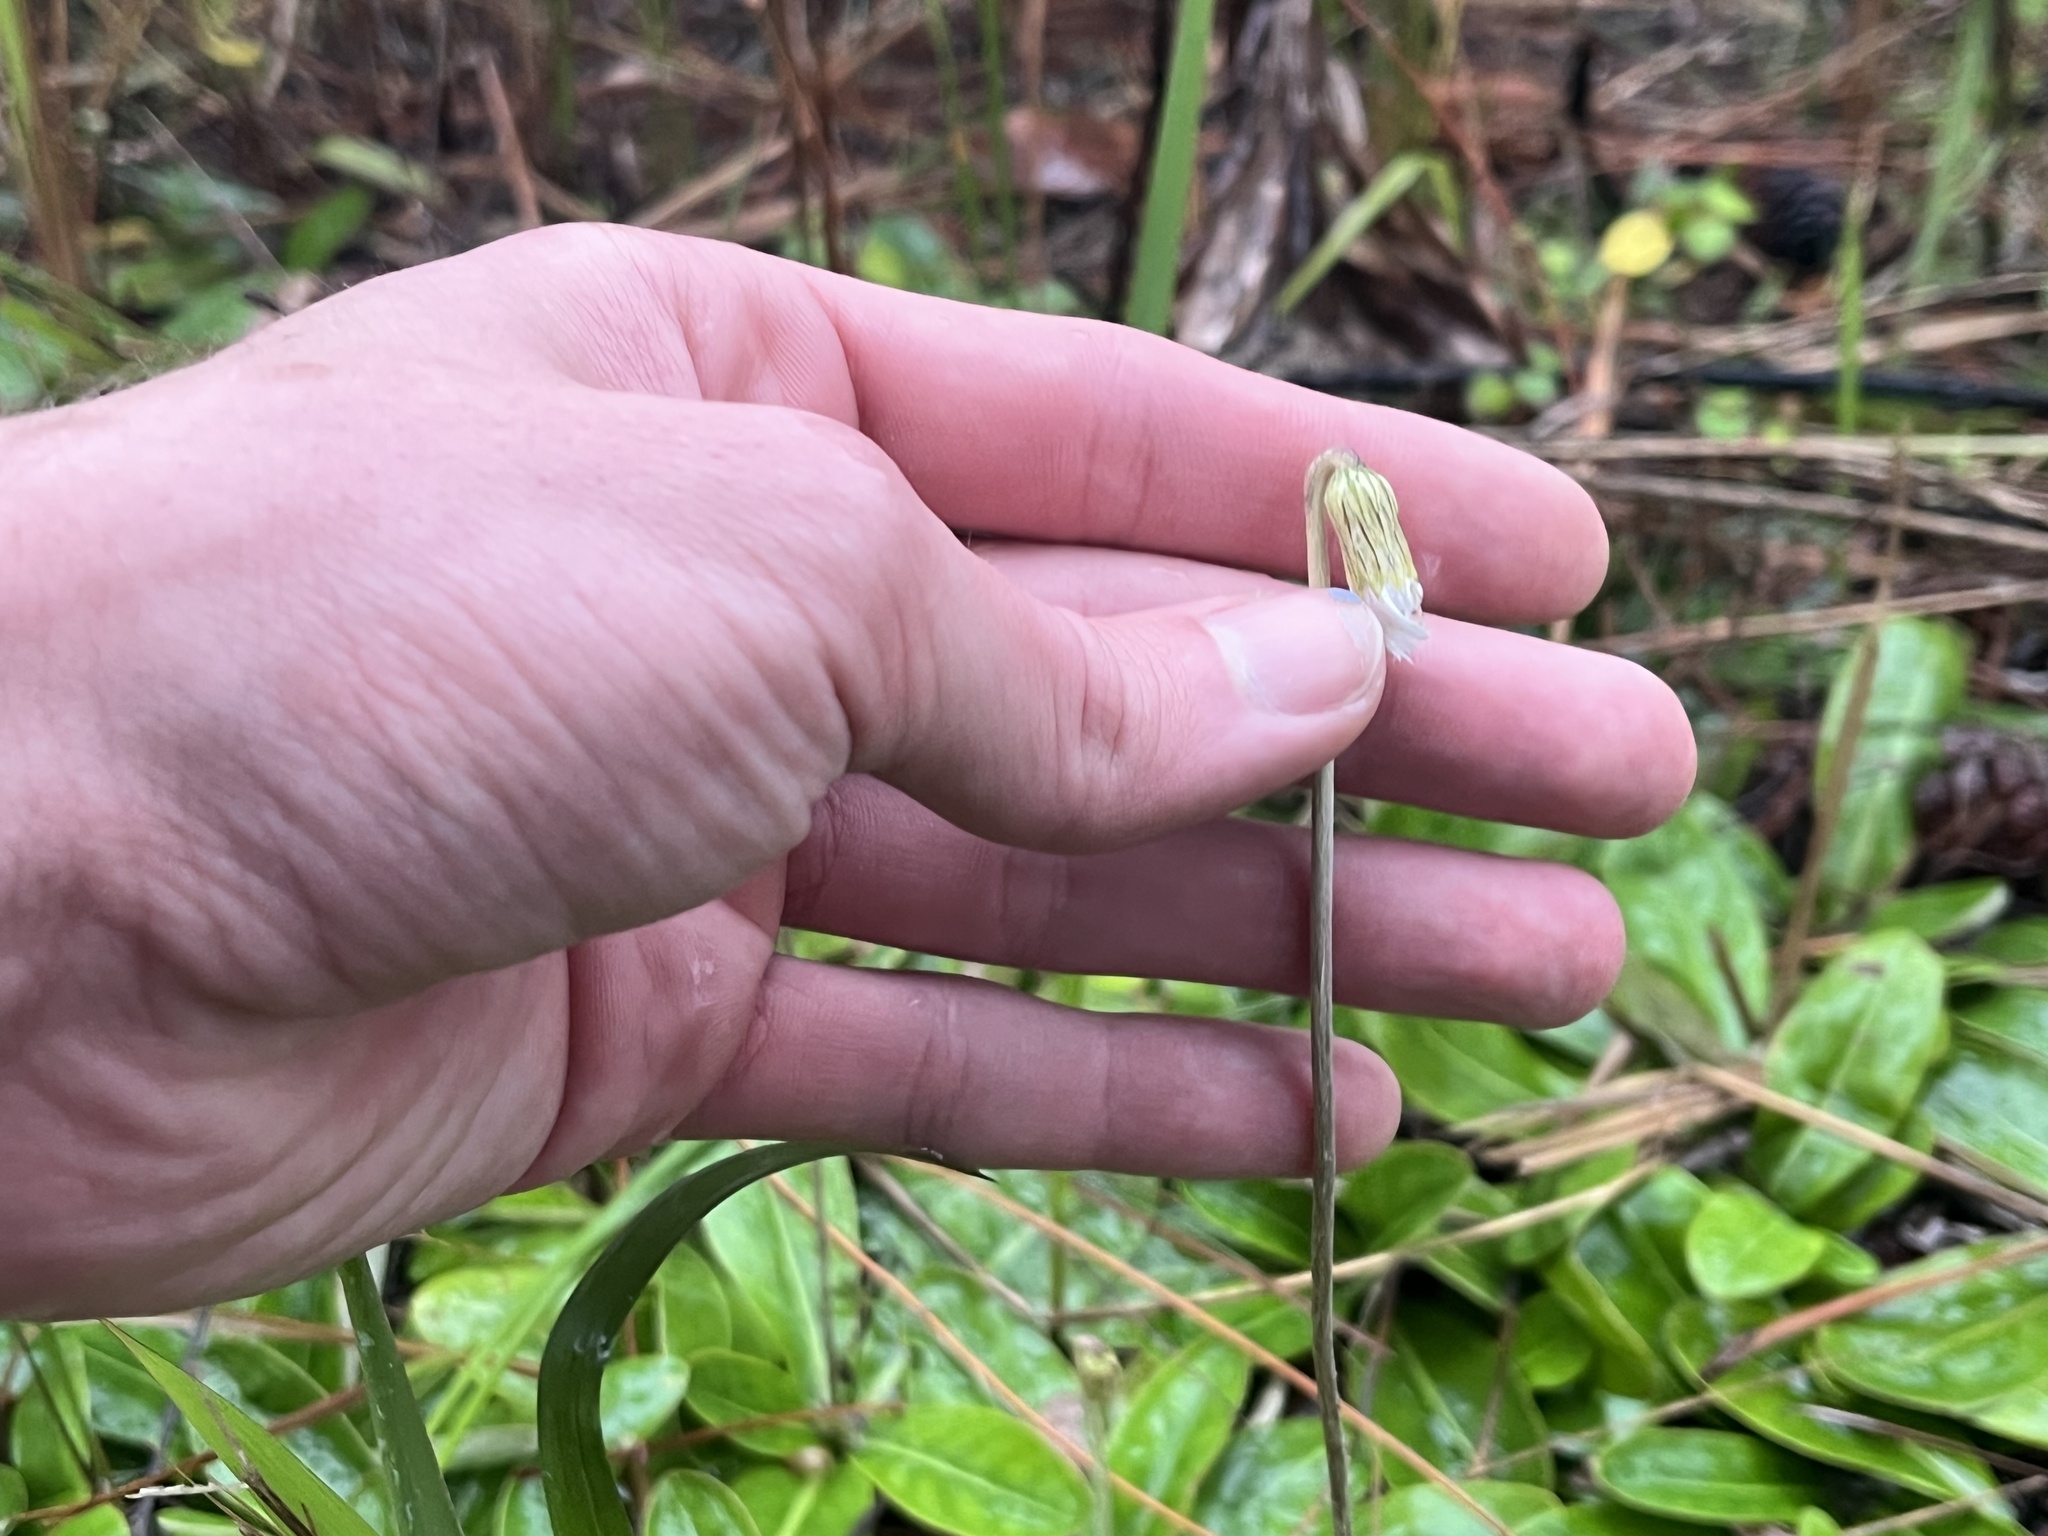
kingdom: Plantae
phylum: Tracheophyta
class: Magnoliopsida
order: Asterales
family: Asteraceae
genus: Chaptalia
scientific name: Chaptalia tomentosa
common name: Woolly sunbonnet
